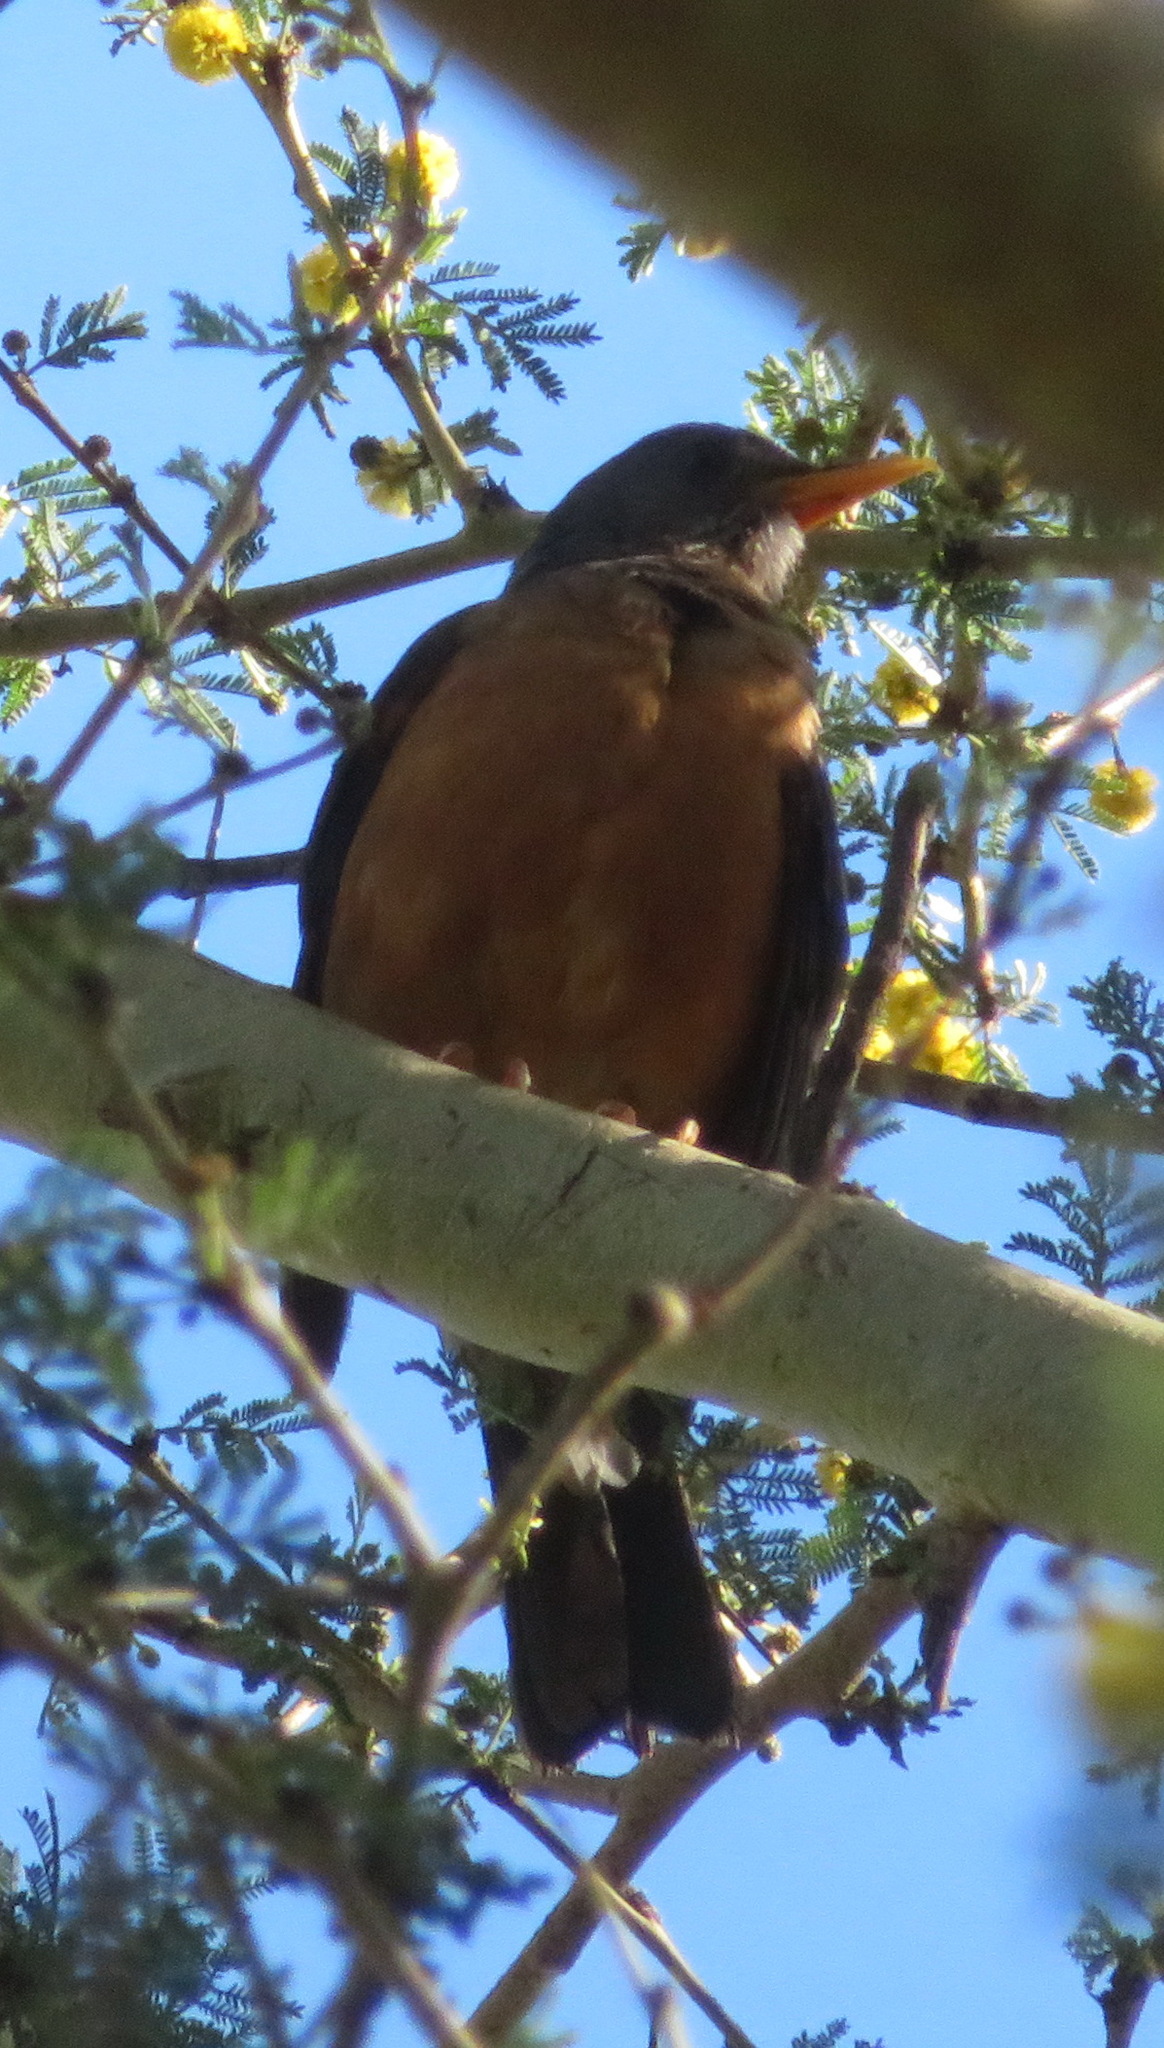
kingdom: Animalia
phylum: Chordata
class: Aves
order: Passeriformes
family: Turdidae
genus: Turdus
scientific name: Turdus olivaceus
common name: Olive thrush
